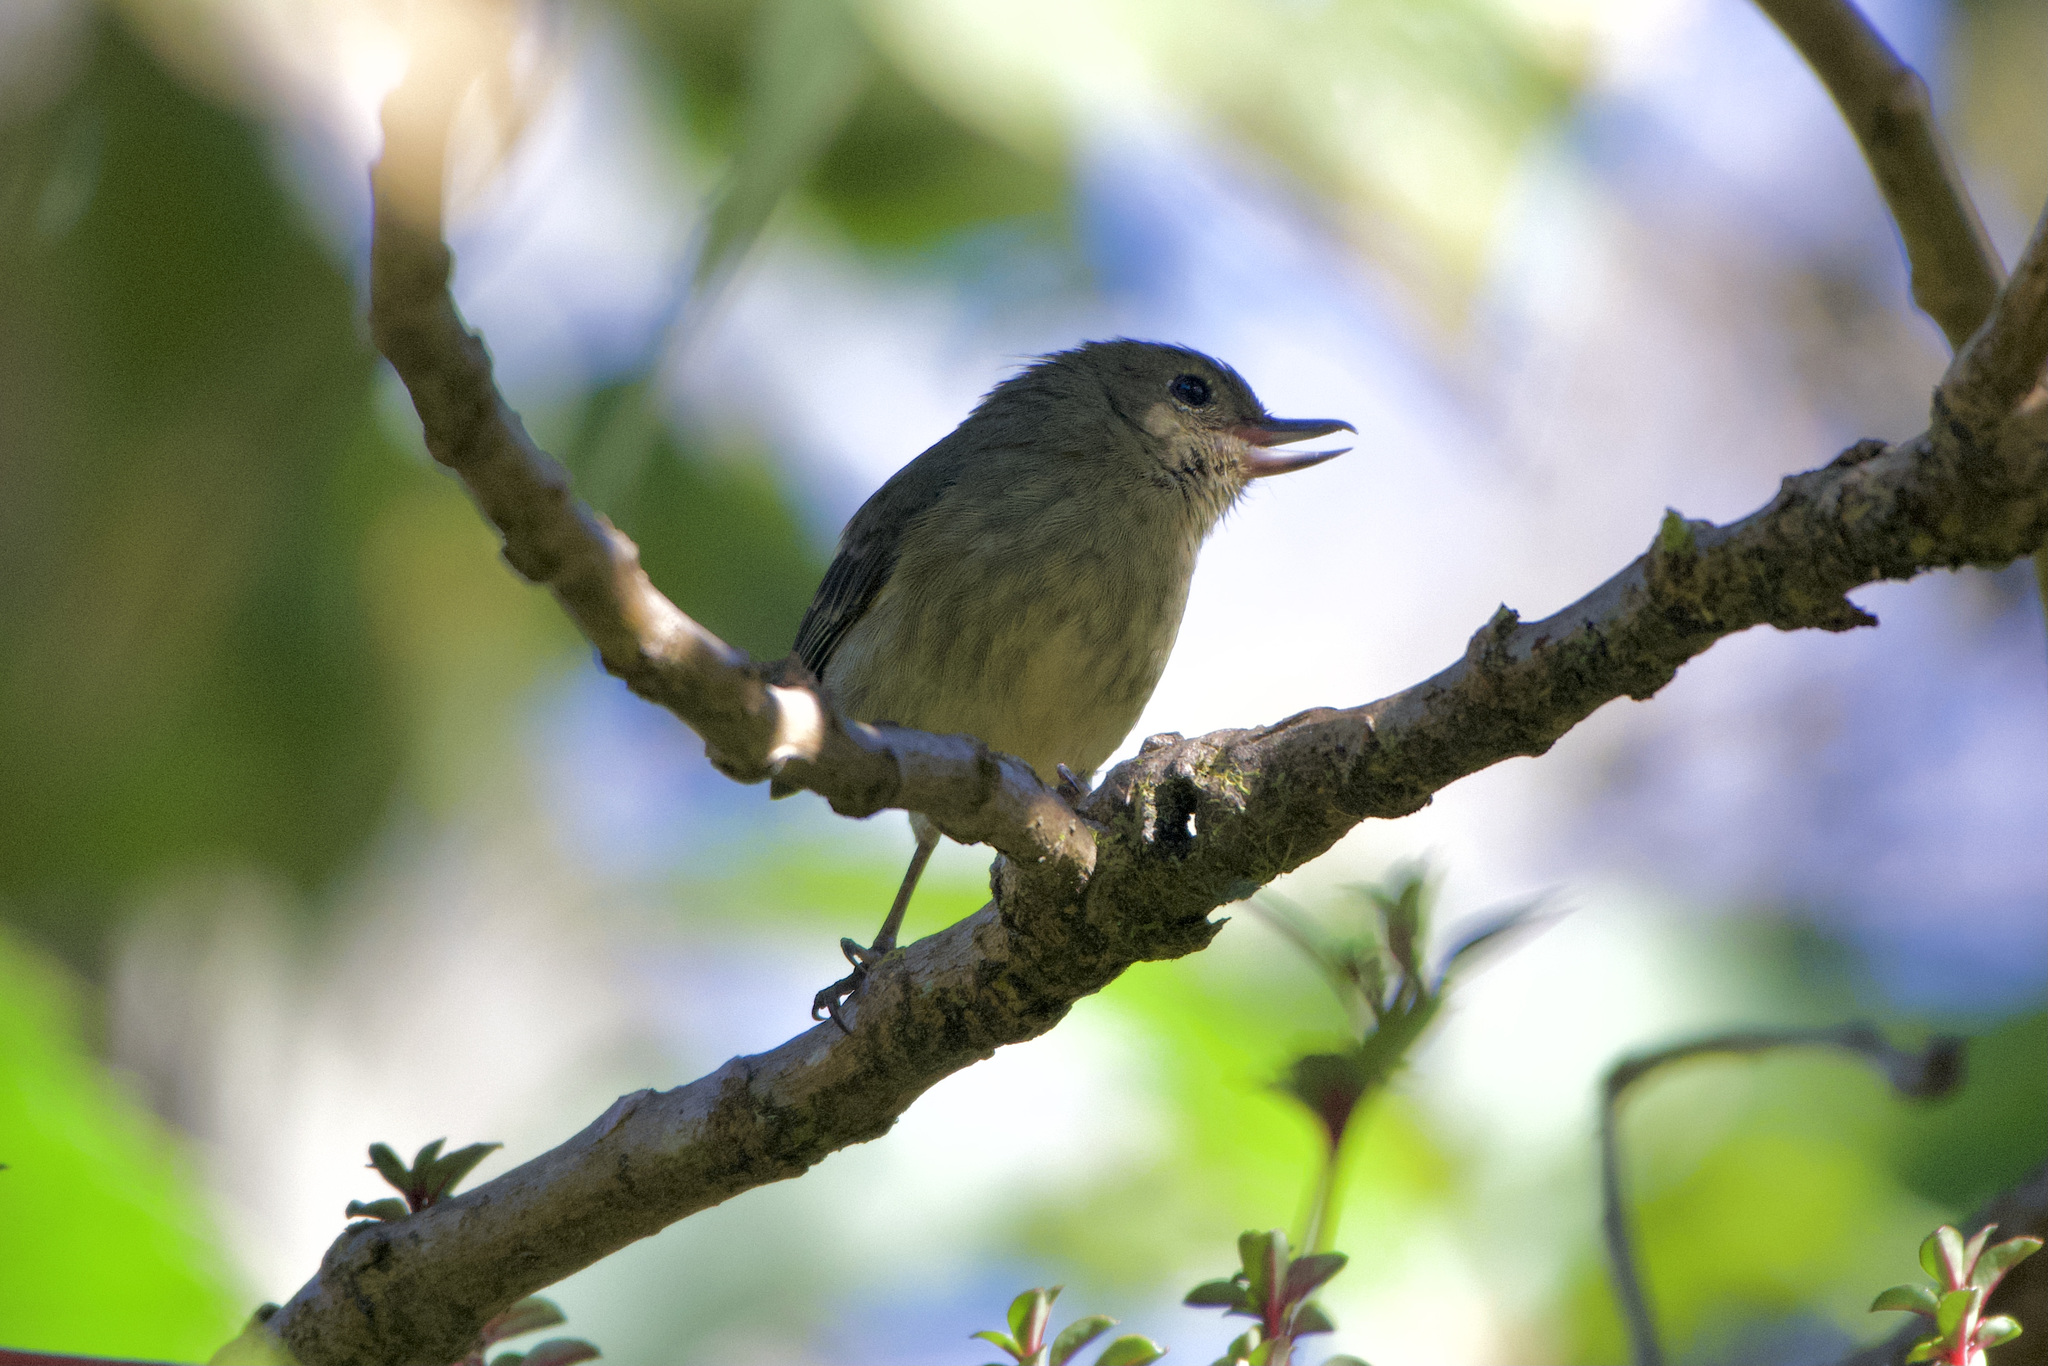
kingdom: Animalia
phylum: Chordata
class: Aves
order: Passeriformes
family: Thraupidae
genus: Diglossa
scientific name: Diglossa plumbea
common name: Slaty flowerpiercer
